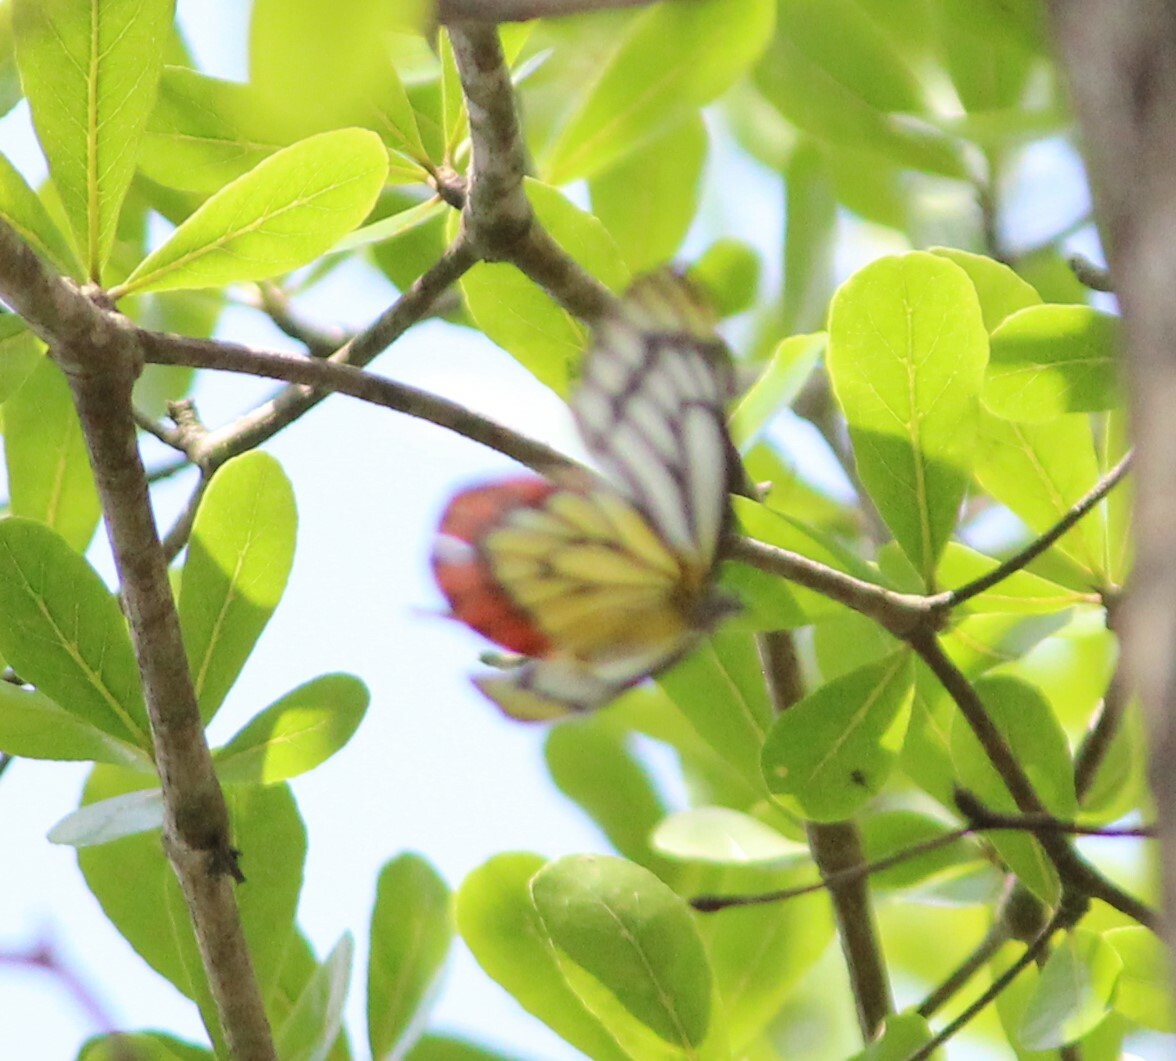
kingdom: Animalia
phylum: Arthropoda
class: Insecta
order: Lepidoptera
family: Pieridae
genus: Delias
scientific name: Delias eucharis
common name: Common jezebel
